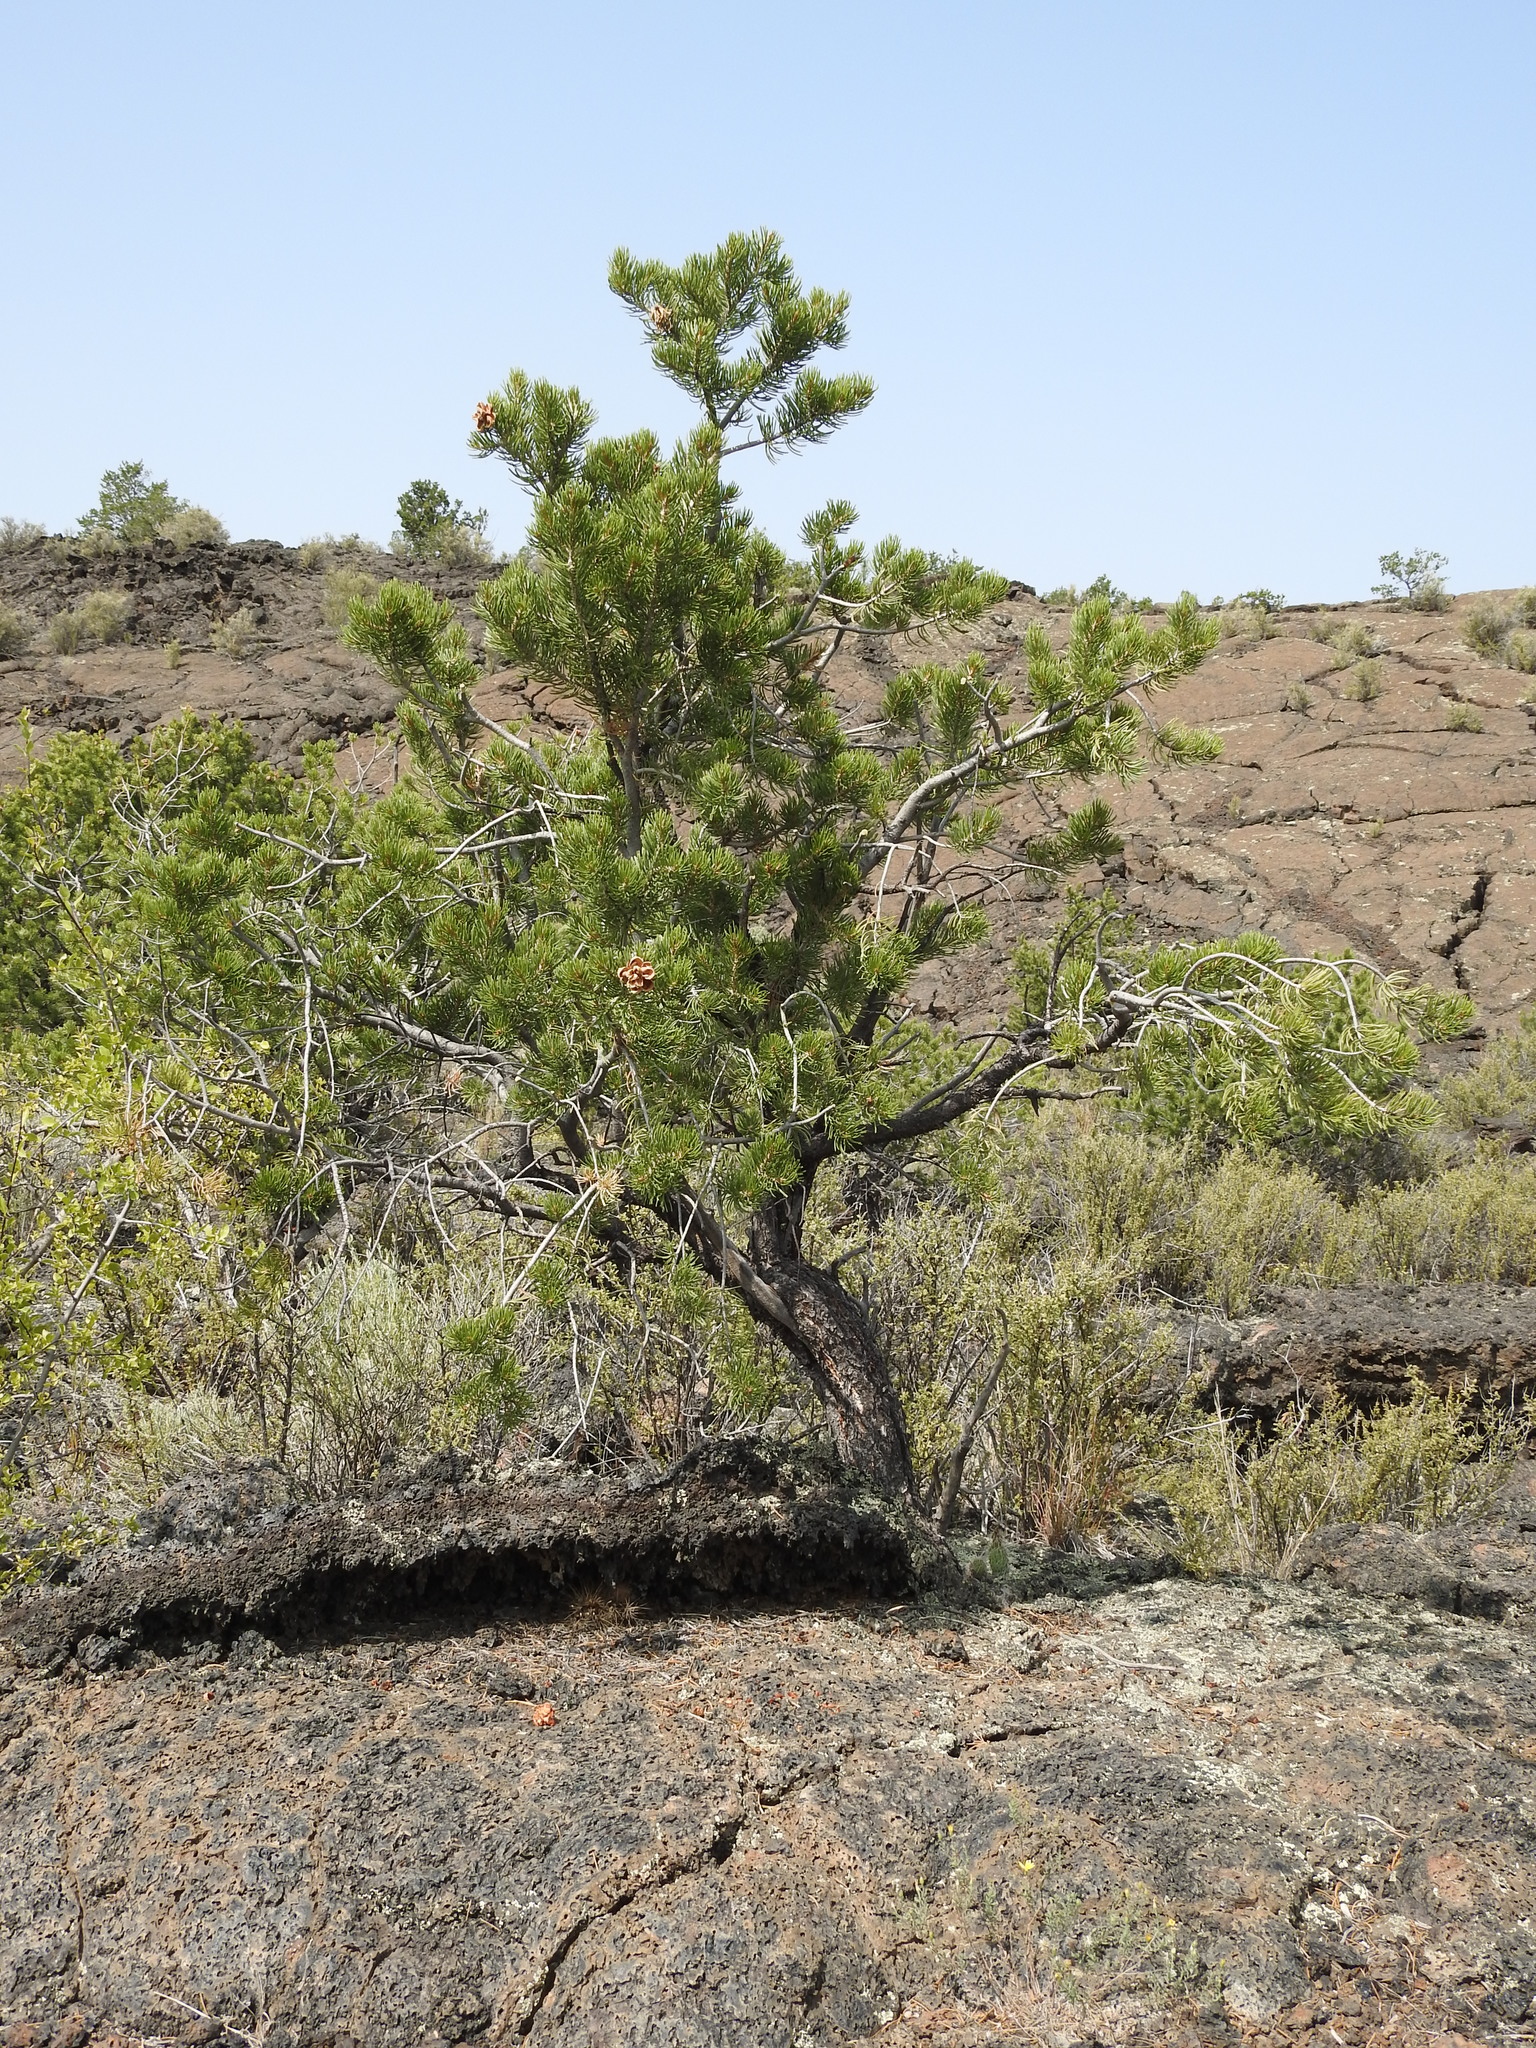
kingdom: Plantae
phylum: Tracheophyta
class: Pinopsida
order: Pinales
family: Pinaceae
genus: Pinus
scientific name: Pinus edulis
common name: Colorado pinyon
